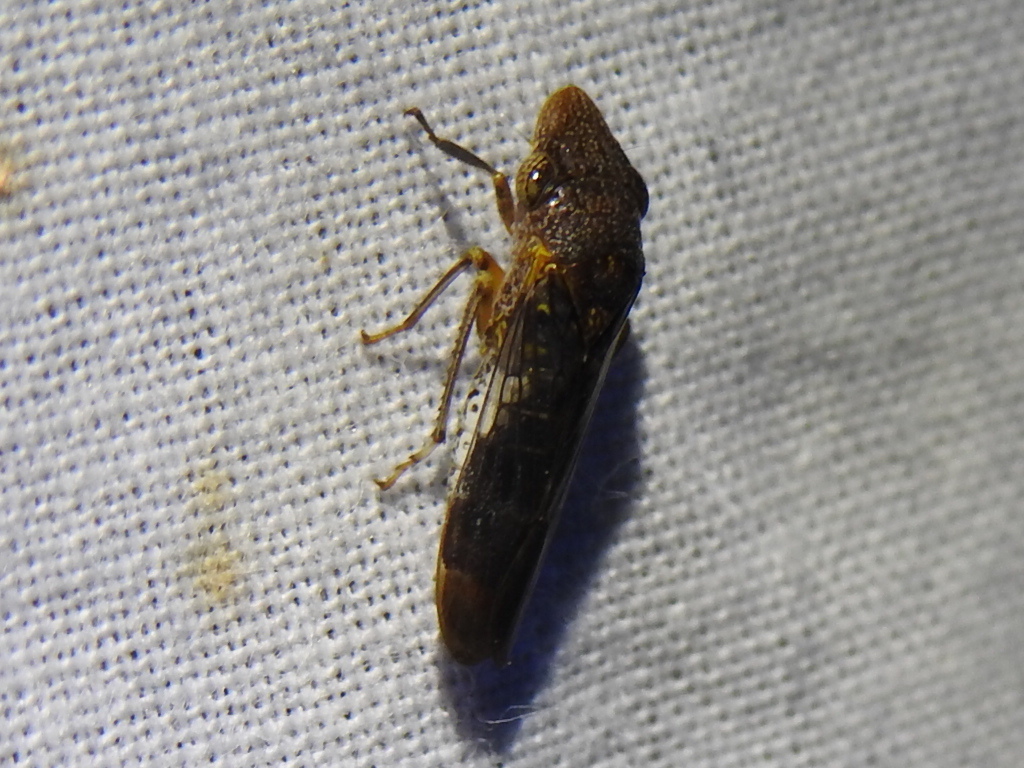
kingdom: Animalia
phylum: Arthropoda
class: Insecta
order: Hemiptera
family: Cicadellidae
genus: Homalodisca
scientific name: Homalodisca vitripennis
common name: Glassy-winged sharpshooter
